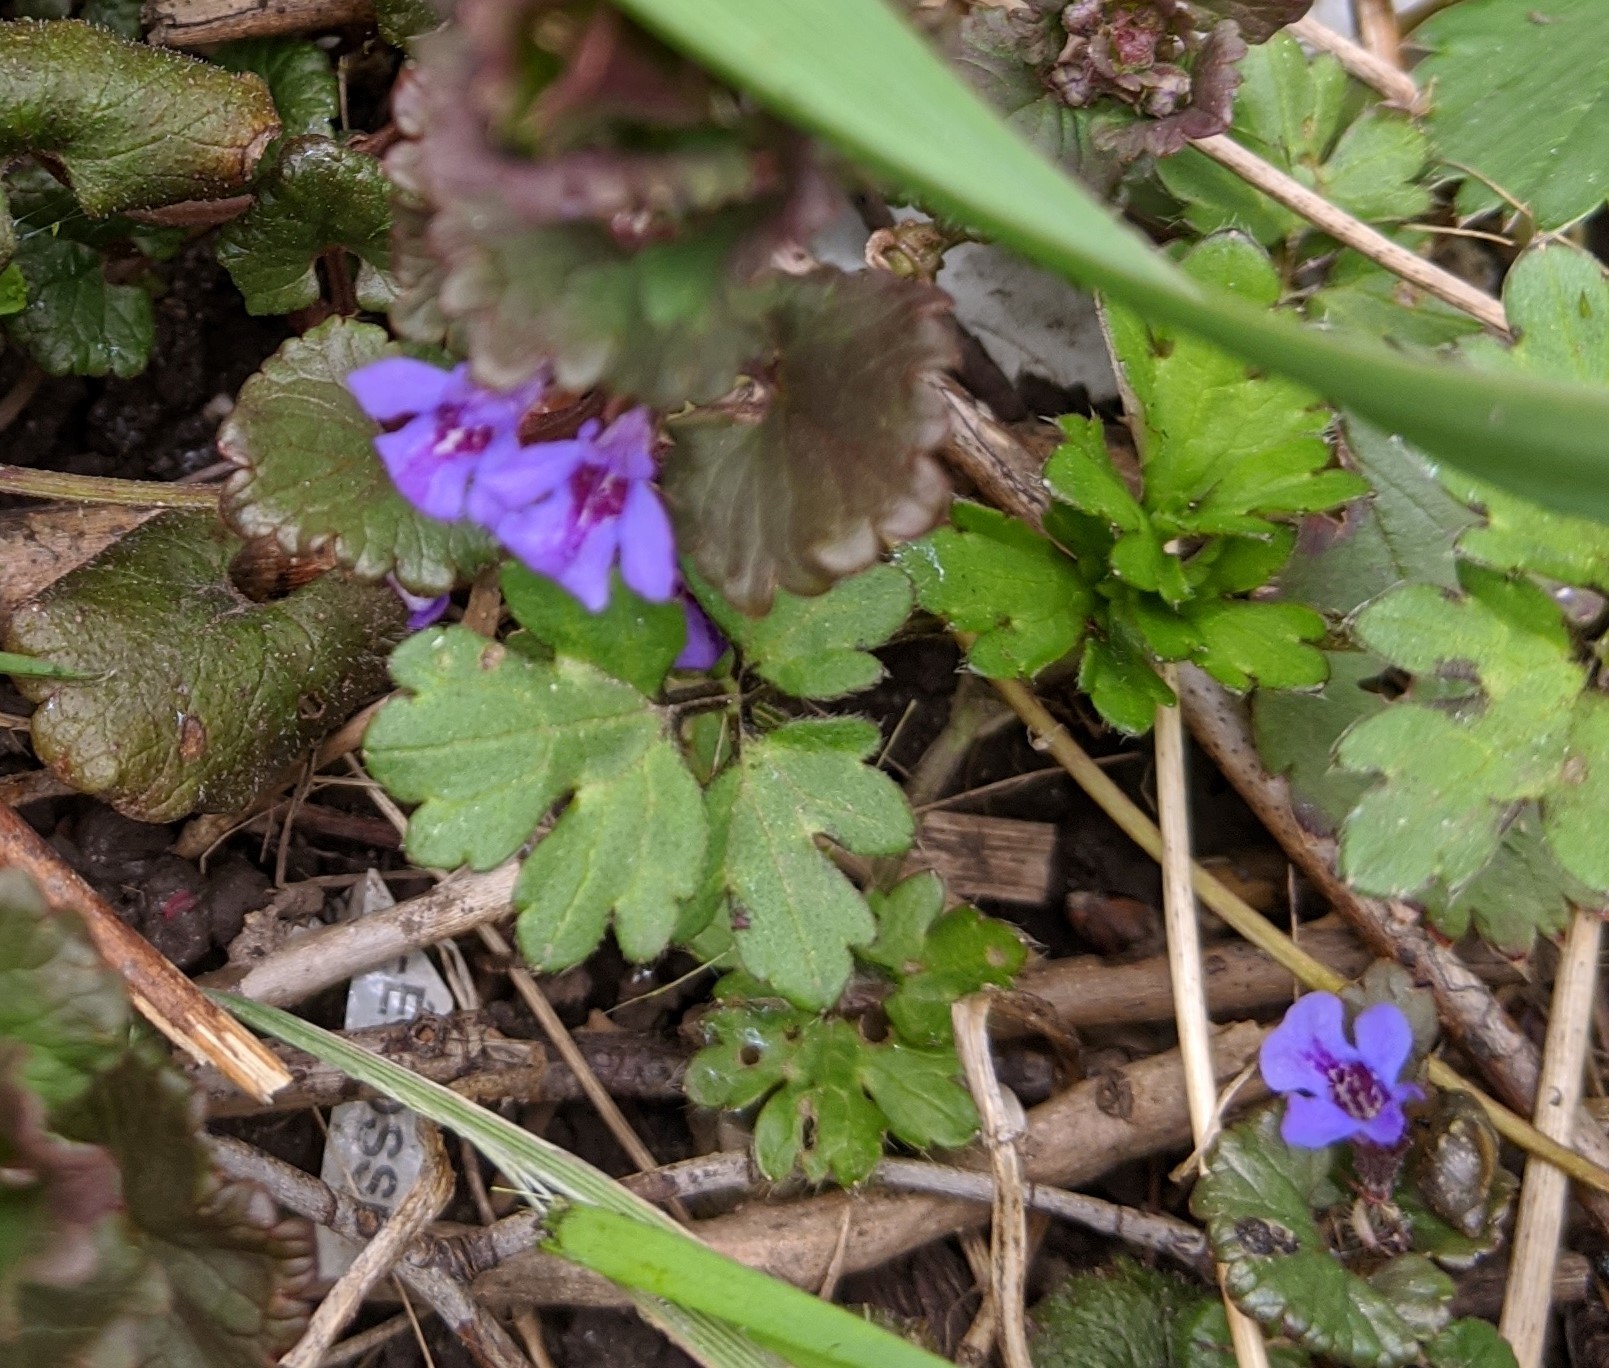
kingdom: Plantae
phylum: Tracheophyta
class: Magnoliopsida
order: Lamiales
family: Lamiaceae
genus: Glechoma
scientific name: Glechoma hederacea
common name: Ground ivy
